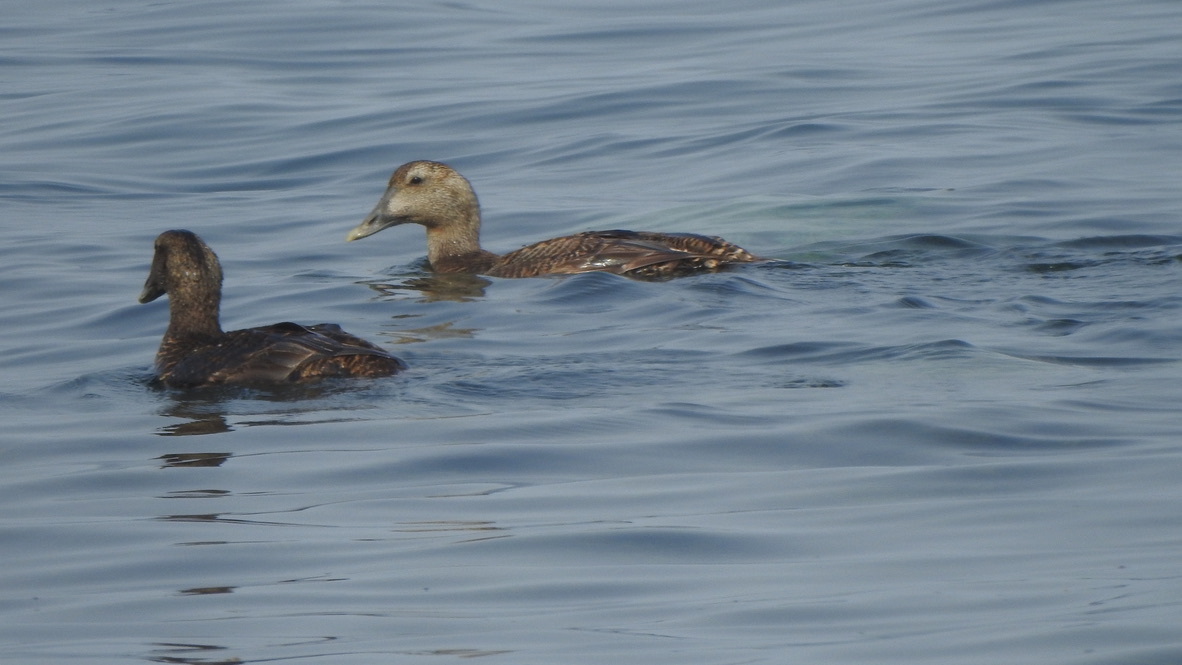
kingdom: Animalia
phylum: Chordata
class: Aves
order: Anseriformes
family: Anatidae
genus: Somateria
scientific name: Somateria mollissima
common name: Common eider
